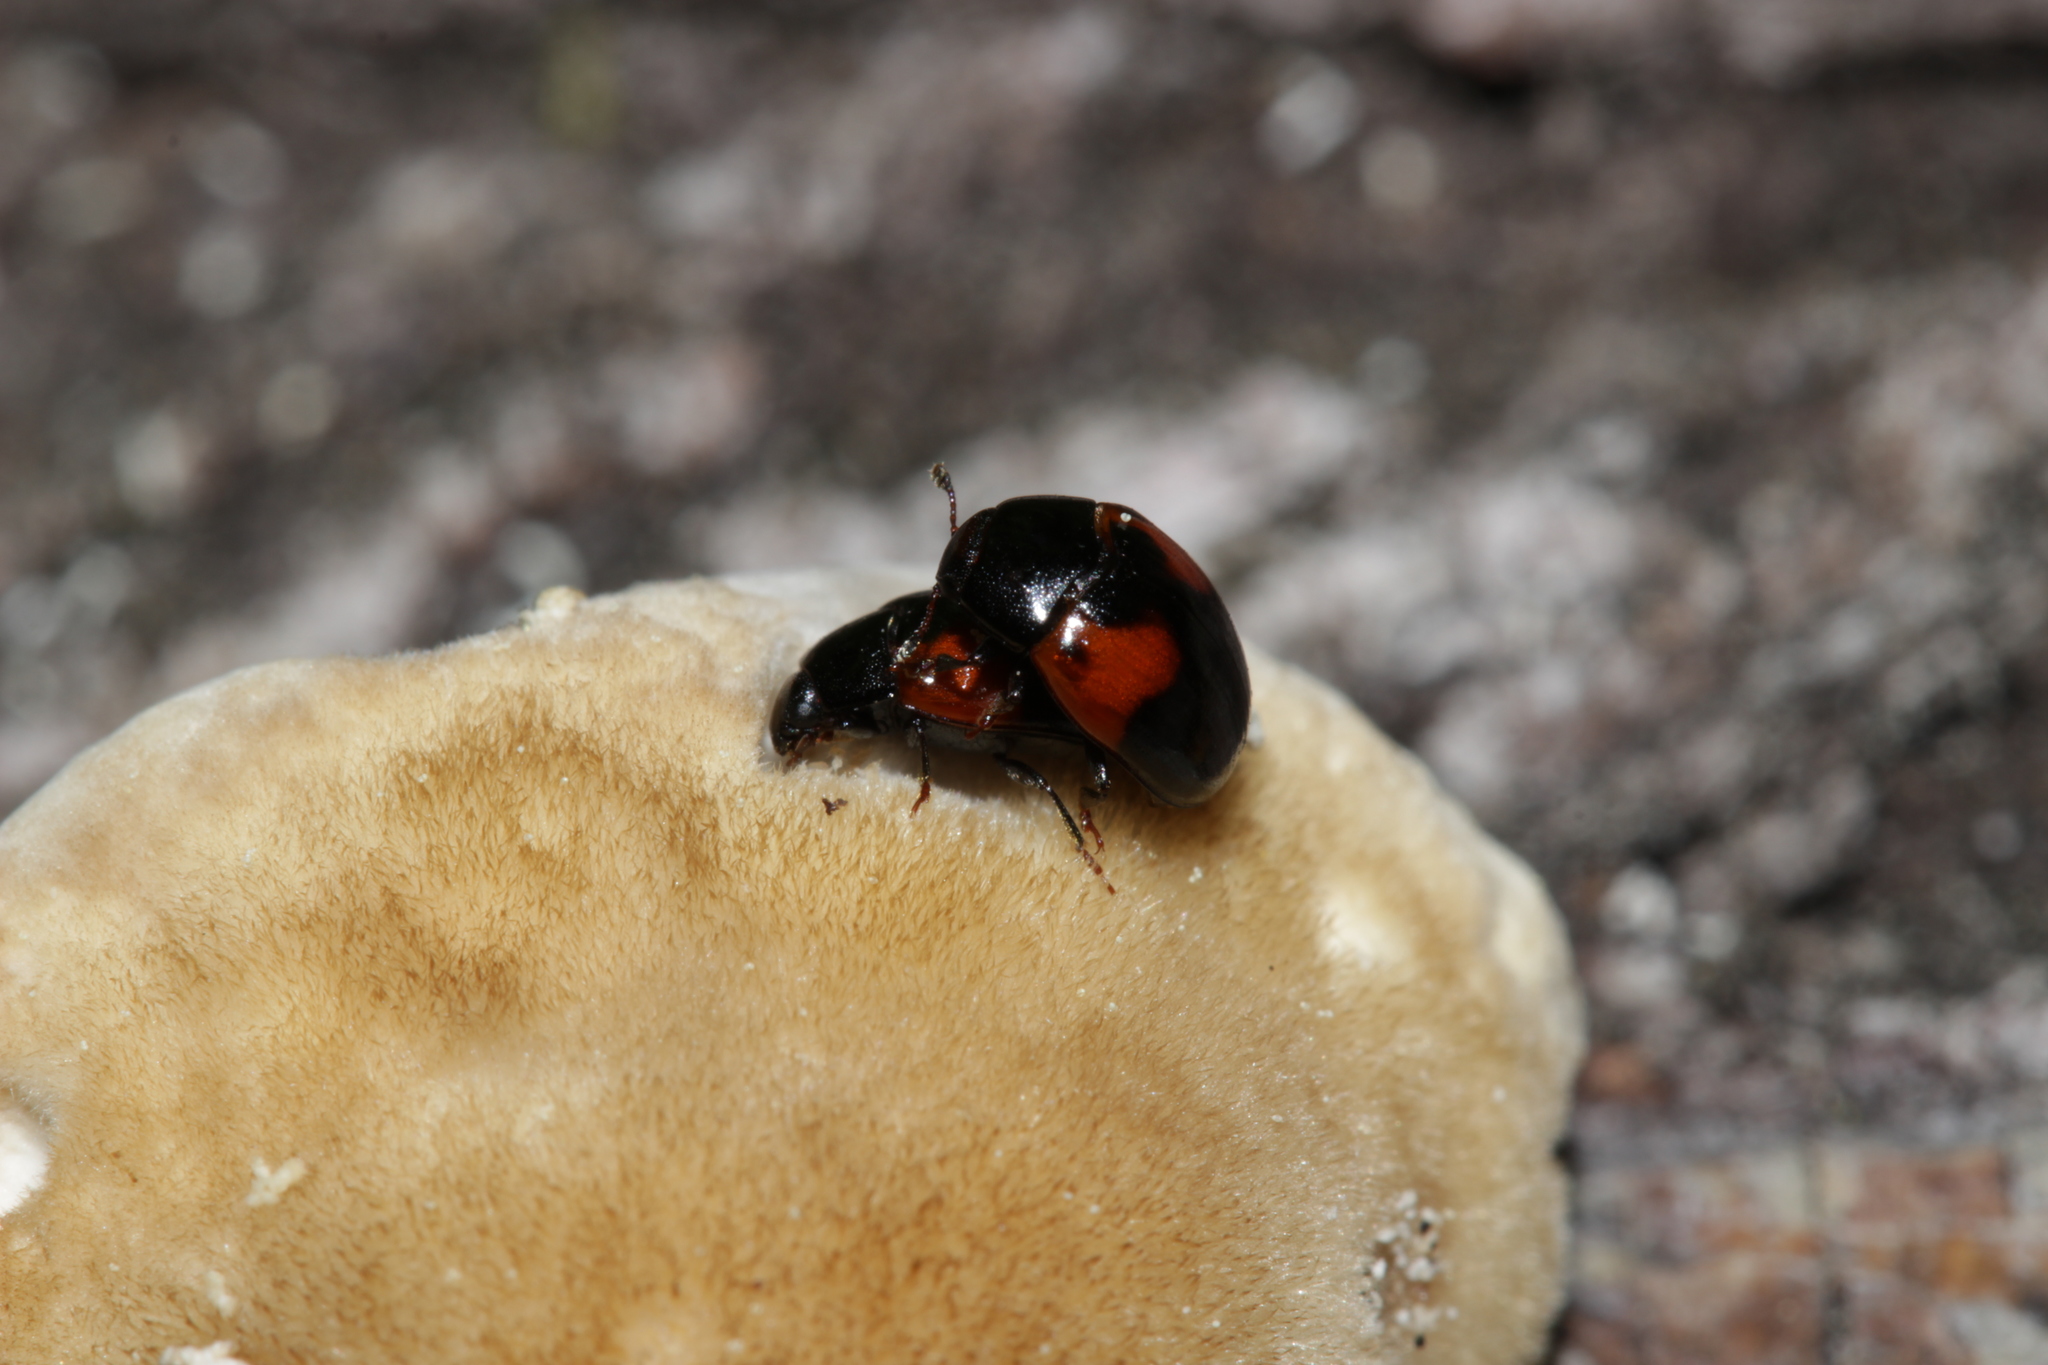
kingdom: Animalia
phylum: Arthropoda
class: Insecta
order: Coleoptera
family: Erotylidae
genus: Tritoma
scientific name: Tritoma bipustulata
